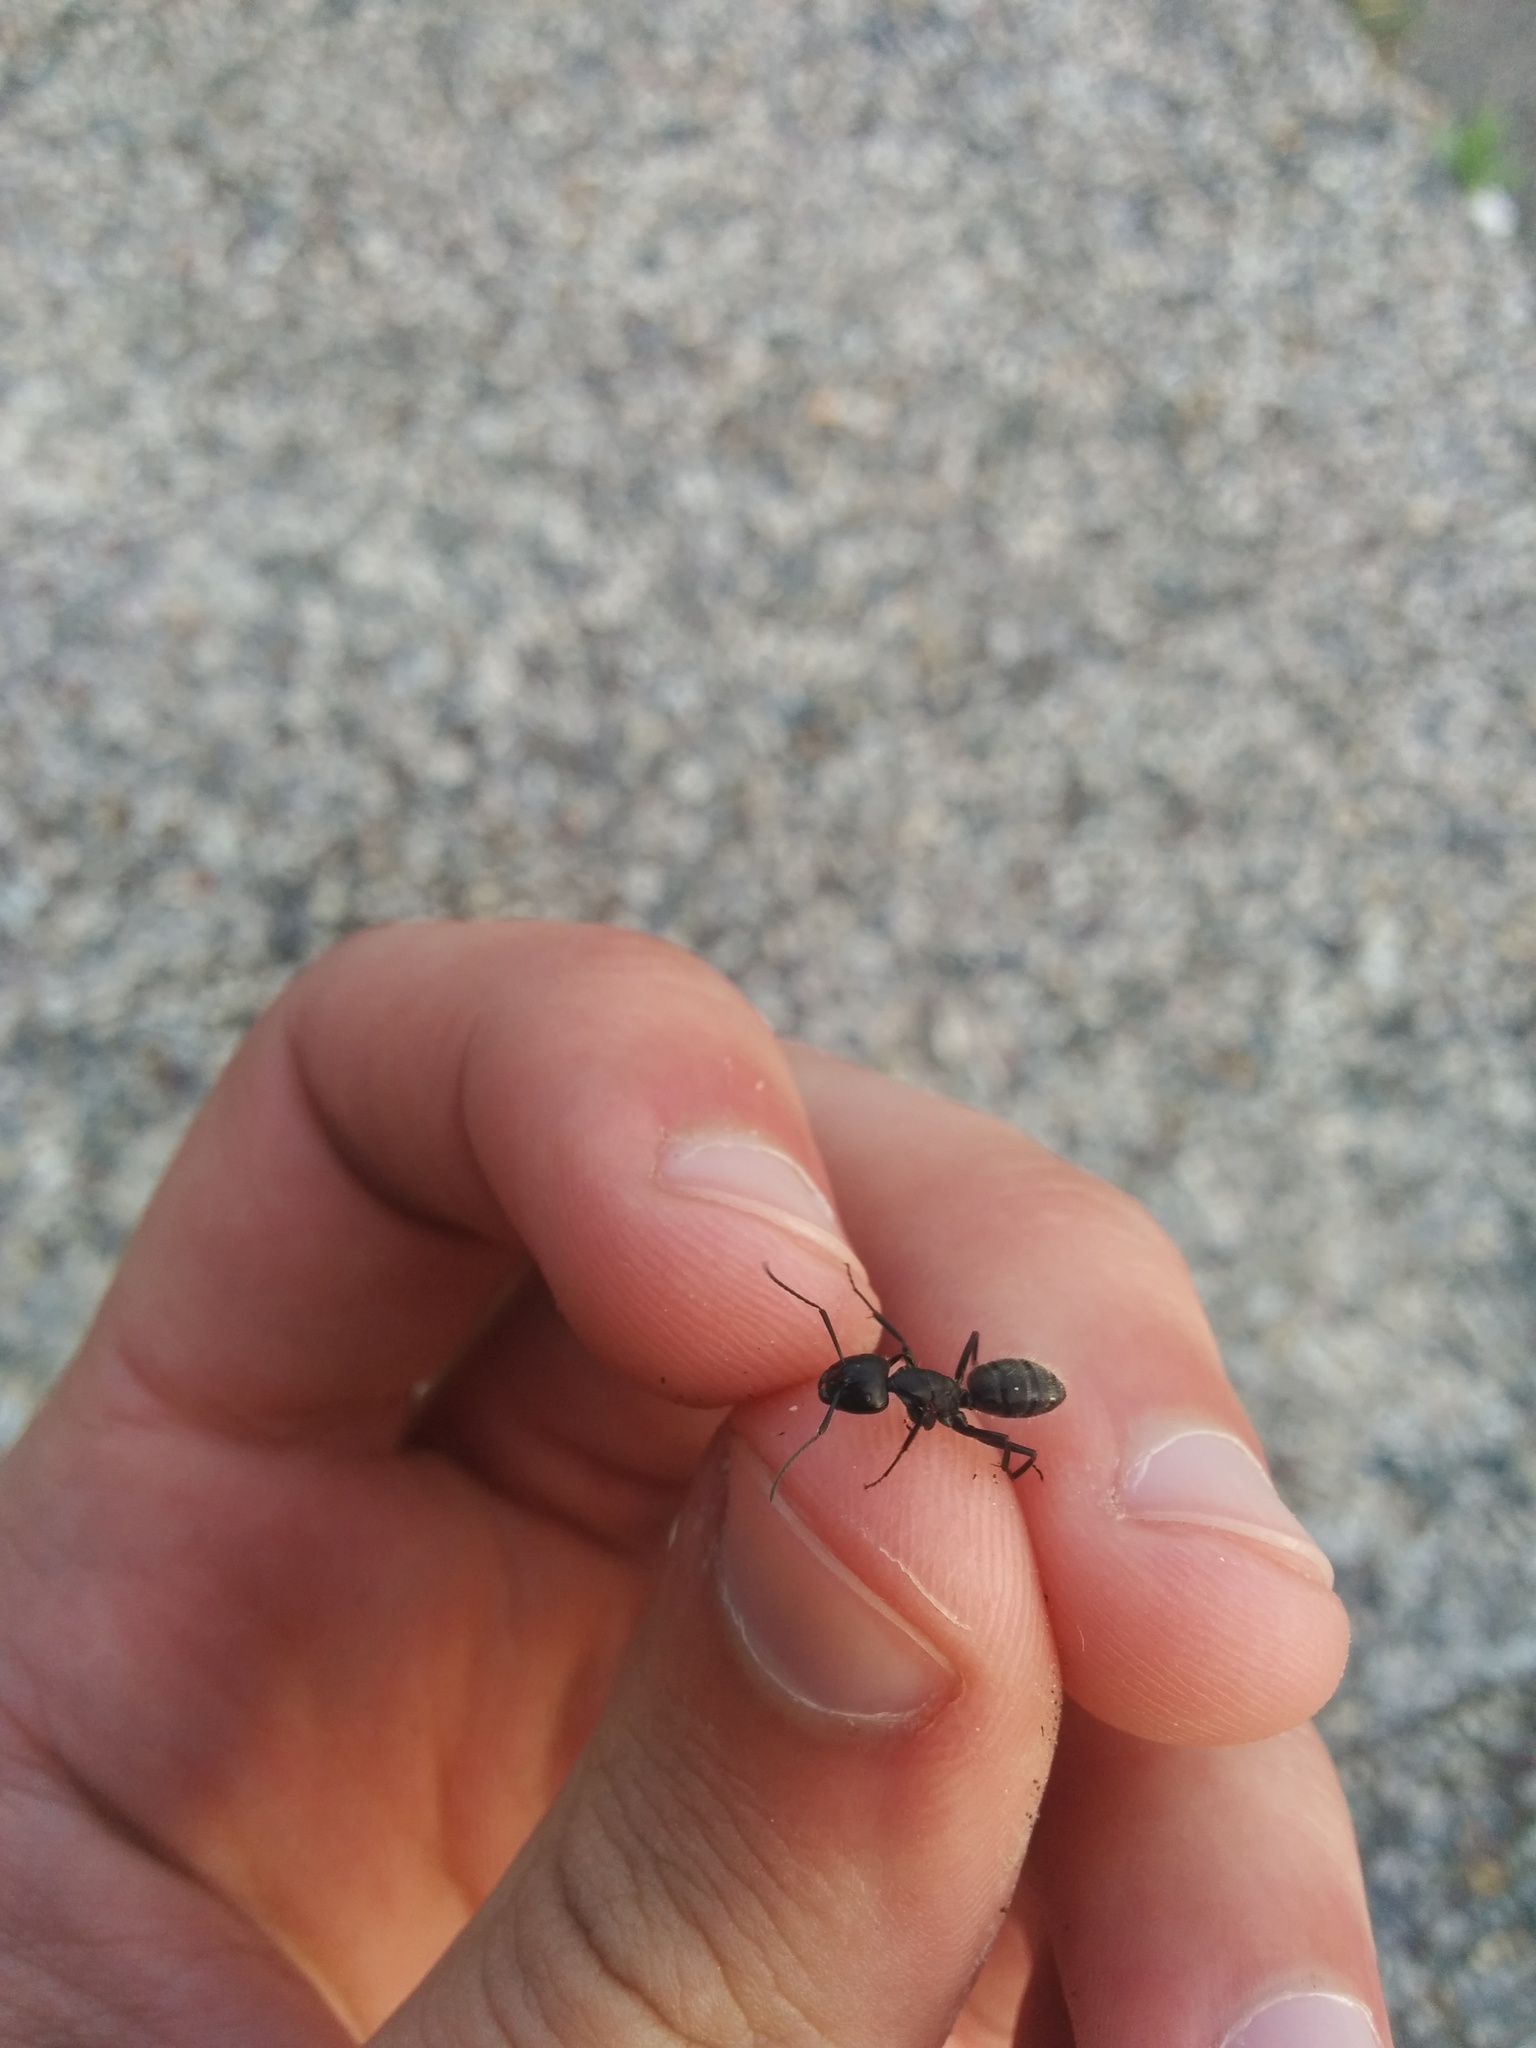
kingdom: Animalia
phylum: Arthropoda
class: Insecta
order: Hymenoptera
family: Formicidae
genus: Camponotus
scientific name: Camponotus vagus
